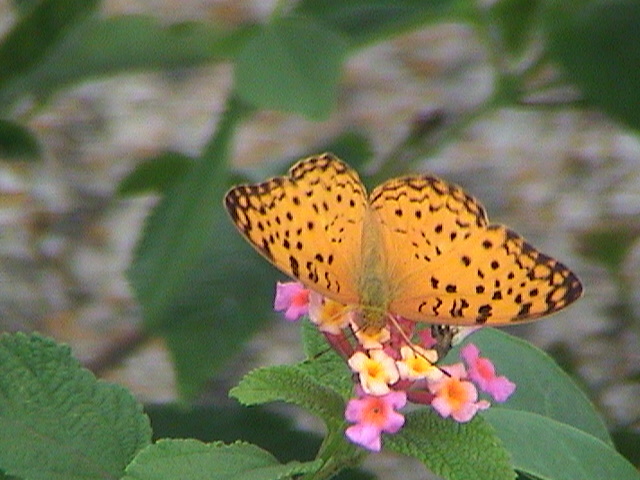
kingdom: Animalia
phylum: Arthropoda
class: Insecta
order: Lepidoptera
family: Nymphalidae
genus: Phalanta
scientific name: Phalanta phalantha
